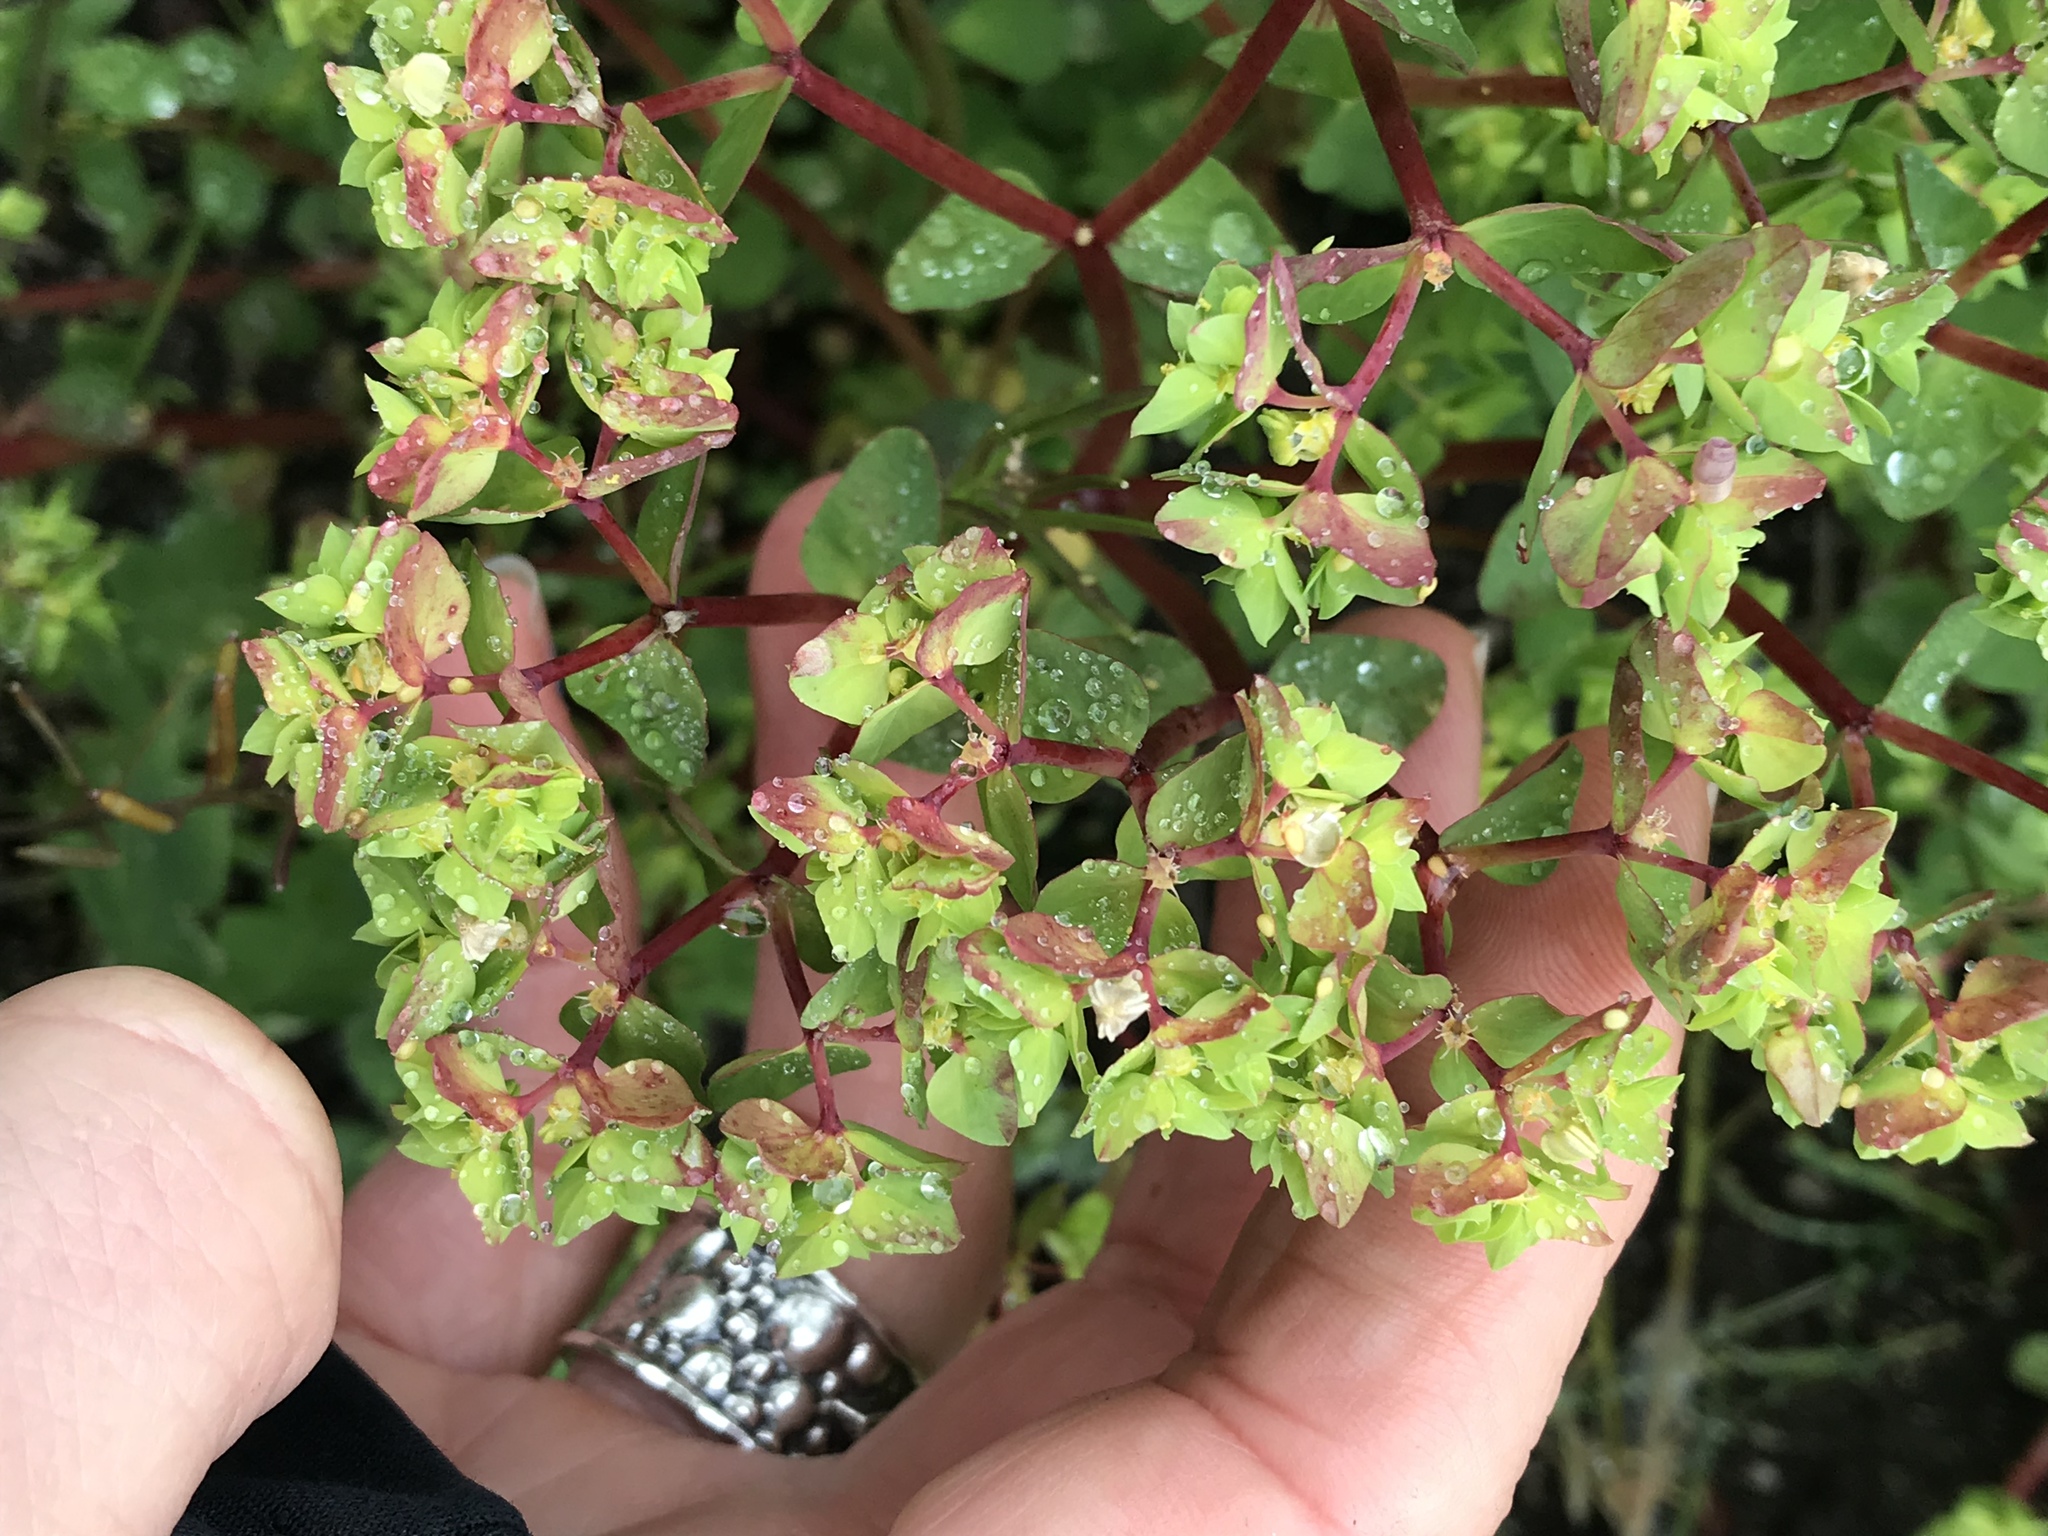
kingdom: Plantae
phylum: Tracheophyta
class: Magnoliopsida
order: Malpighiales
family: Euphorbiaceae
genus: Euphorbia
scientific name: Euphorbia peplus
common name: Petty spurge
